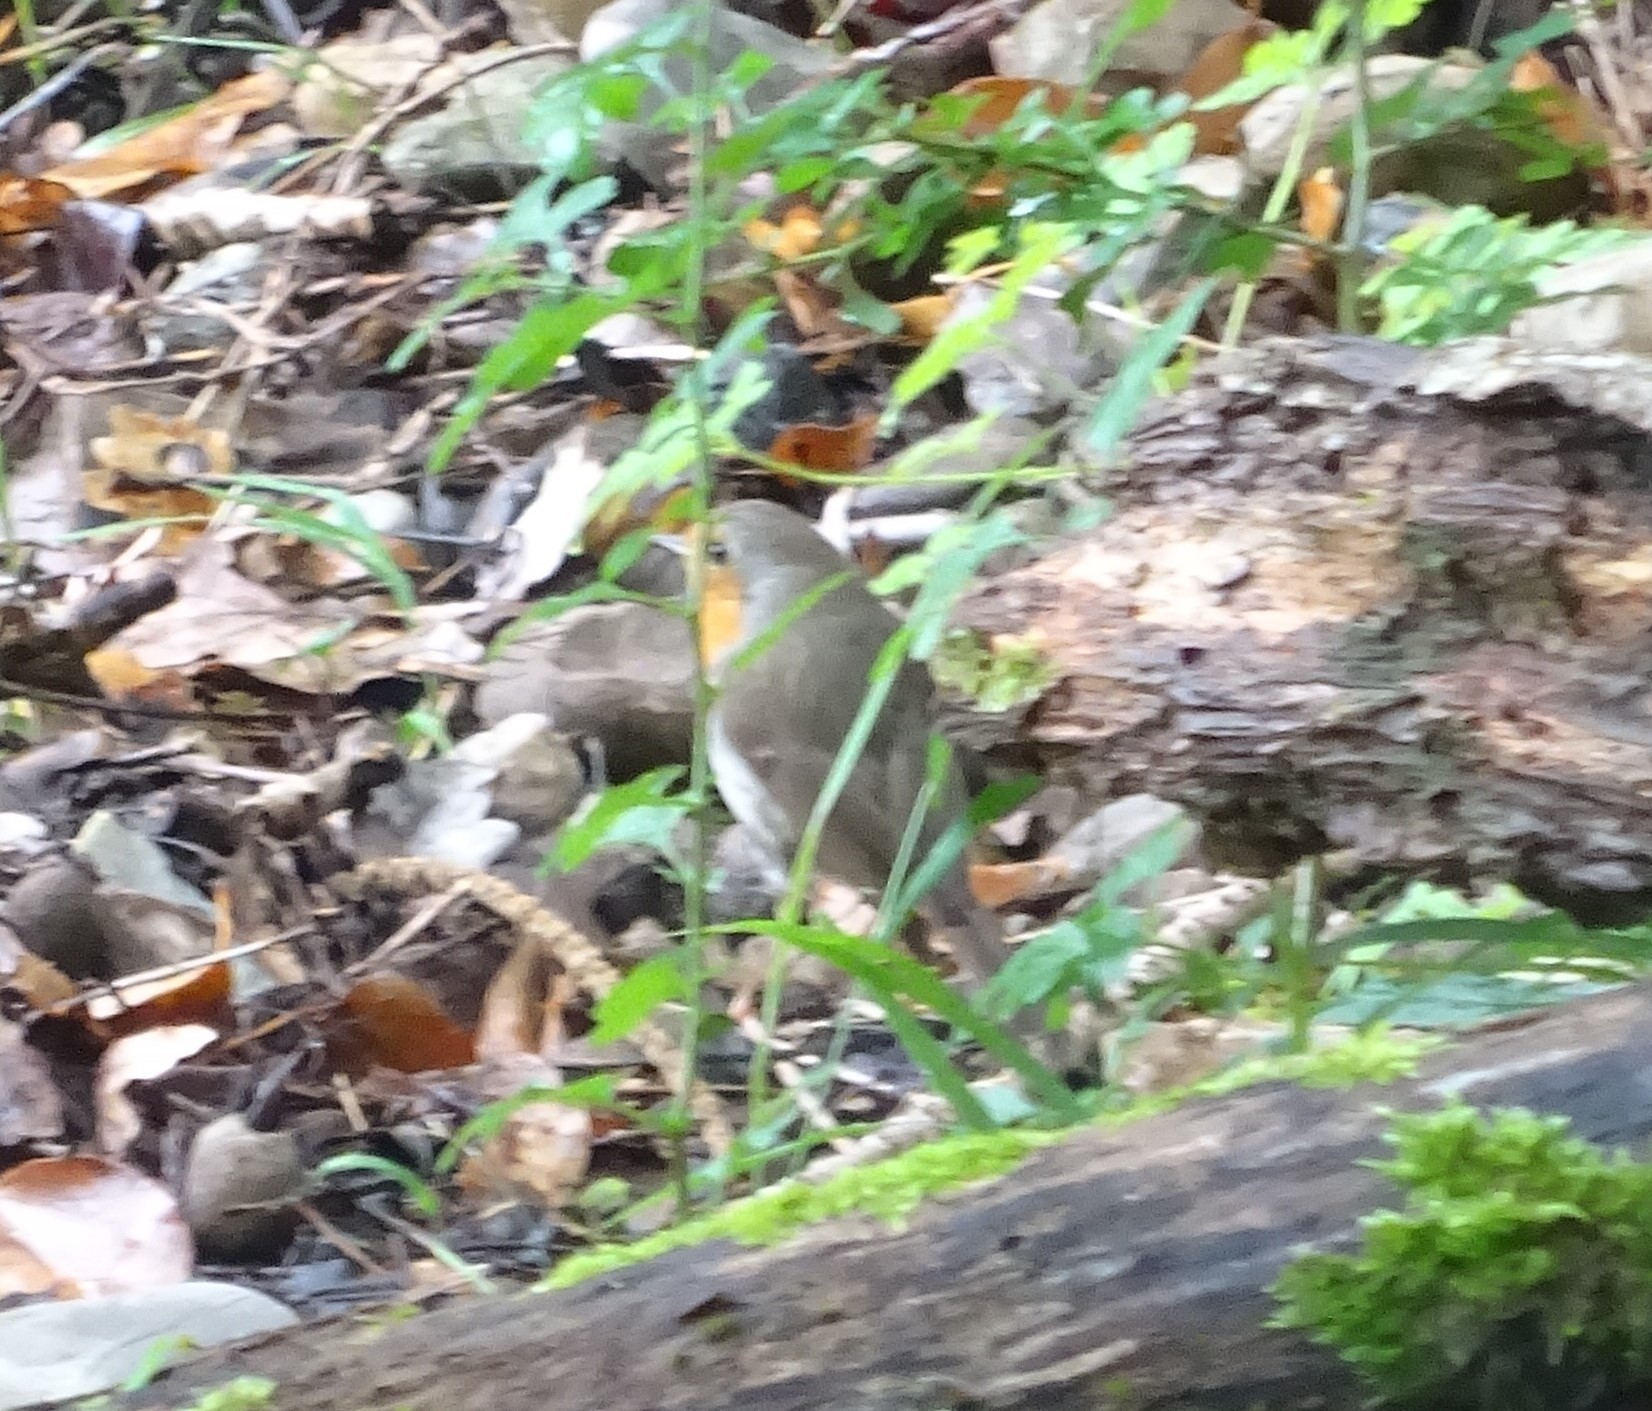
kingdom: Animalia
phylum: Chordata
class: Aves
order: Passeriformes
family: Muscicapidae
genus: Erithacus
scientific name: Erithacus rubecula
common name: European robin
